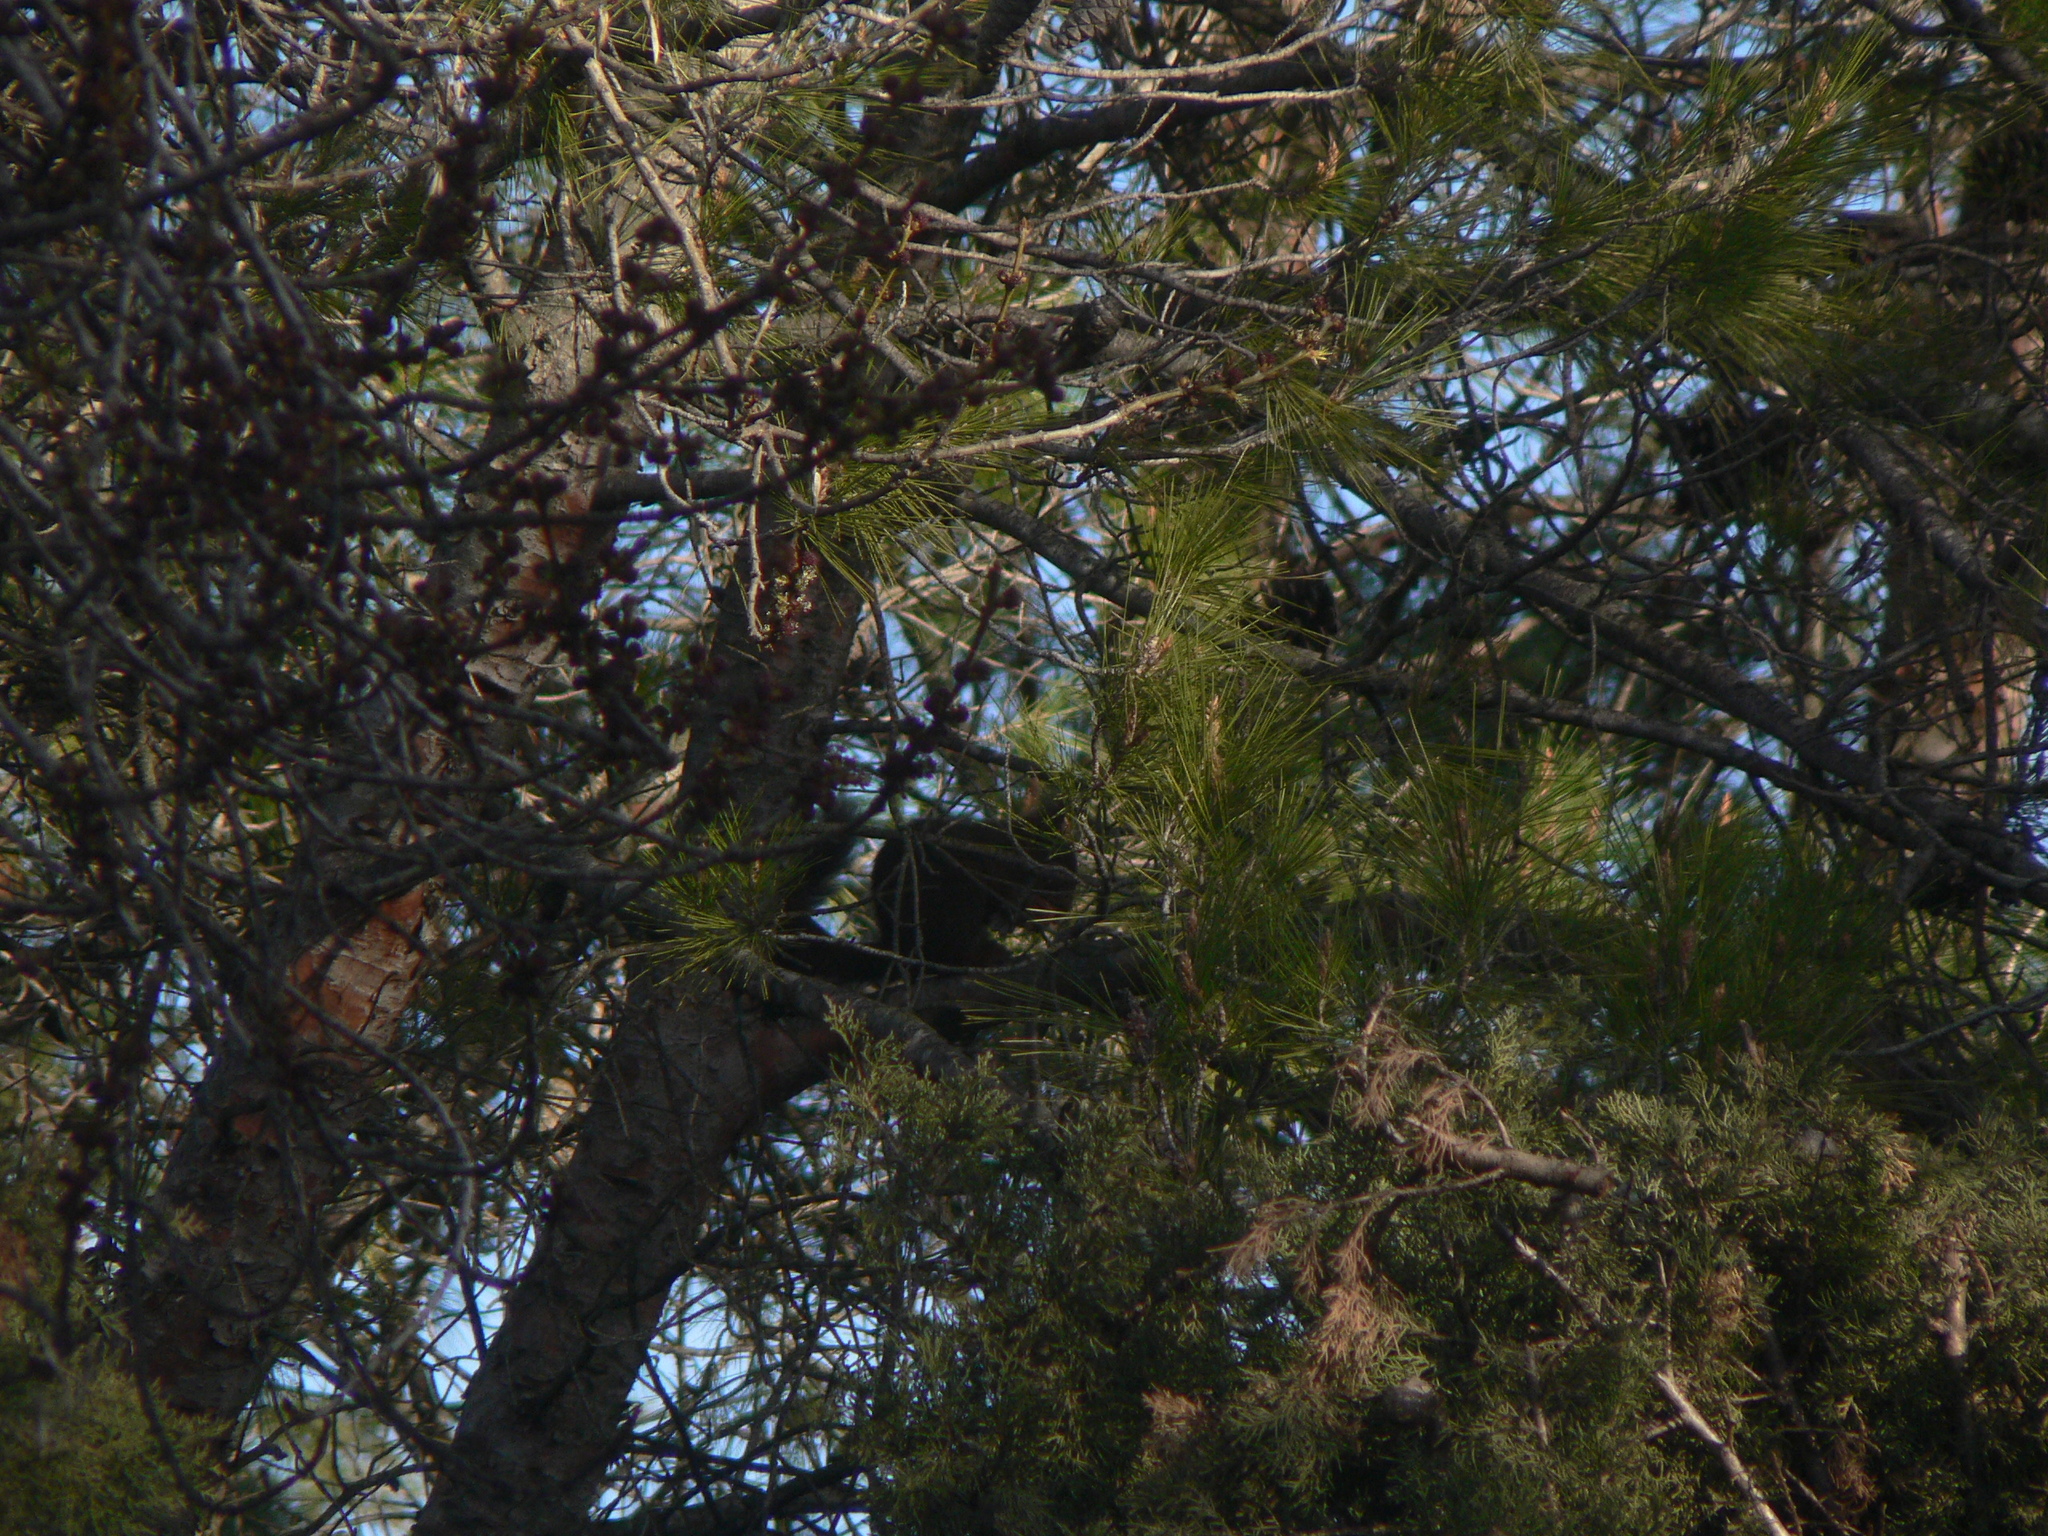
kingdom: Animalia
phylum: Chordata
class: Mammalia
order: Rodentia
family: Sciuridae
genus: Sciurus
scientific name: Sciurus vulgaris
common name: Eurasian red squirrel
